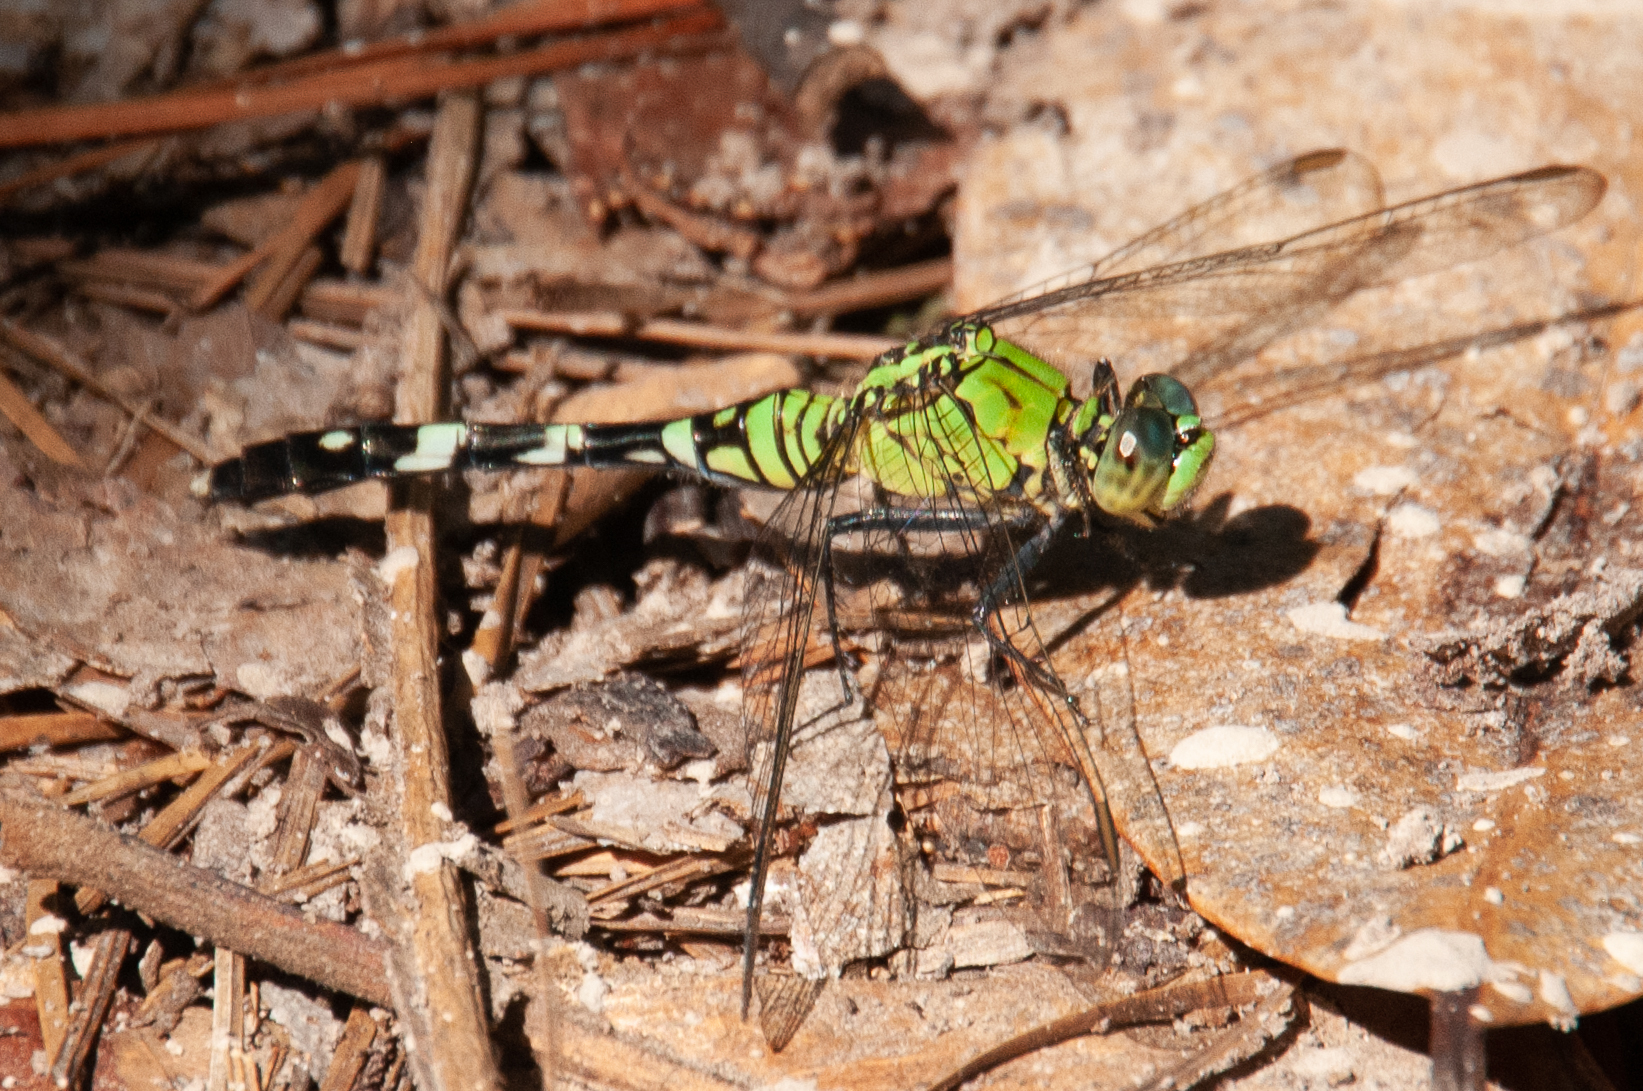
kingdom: Animalia
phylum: Arthropoda
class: Insecta
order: Odonata
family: Libellulidae
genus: Erythemis
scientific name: Erythemis simplicicollis
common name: Eastern pondhawk
